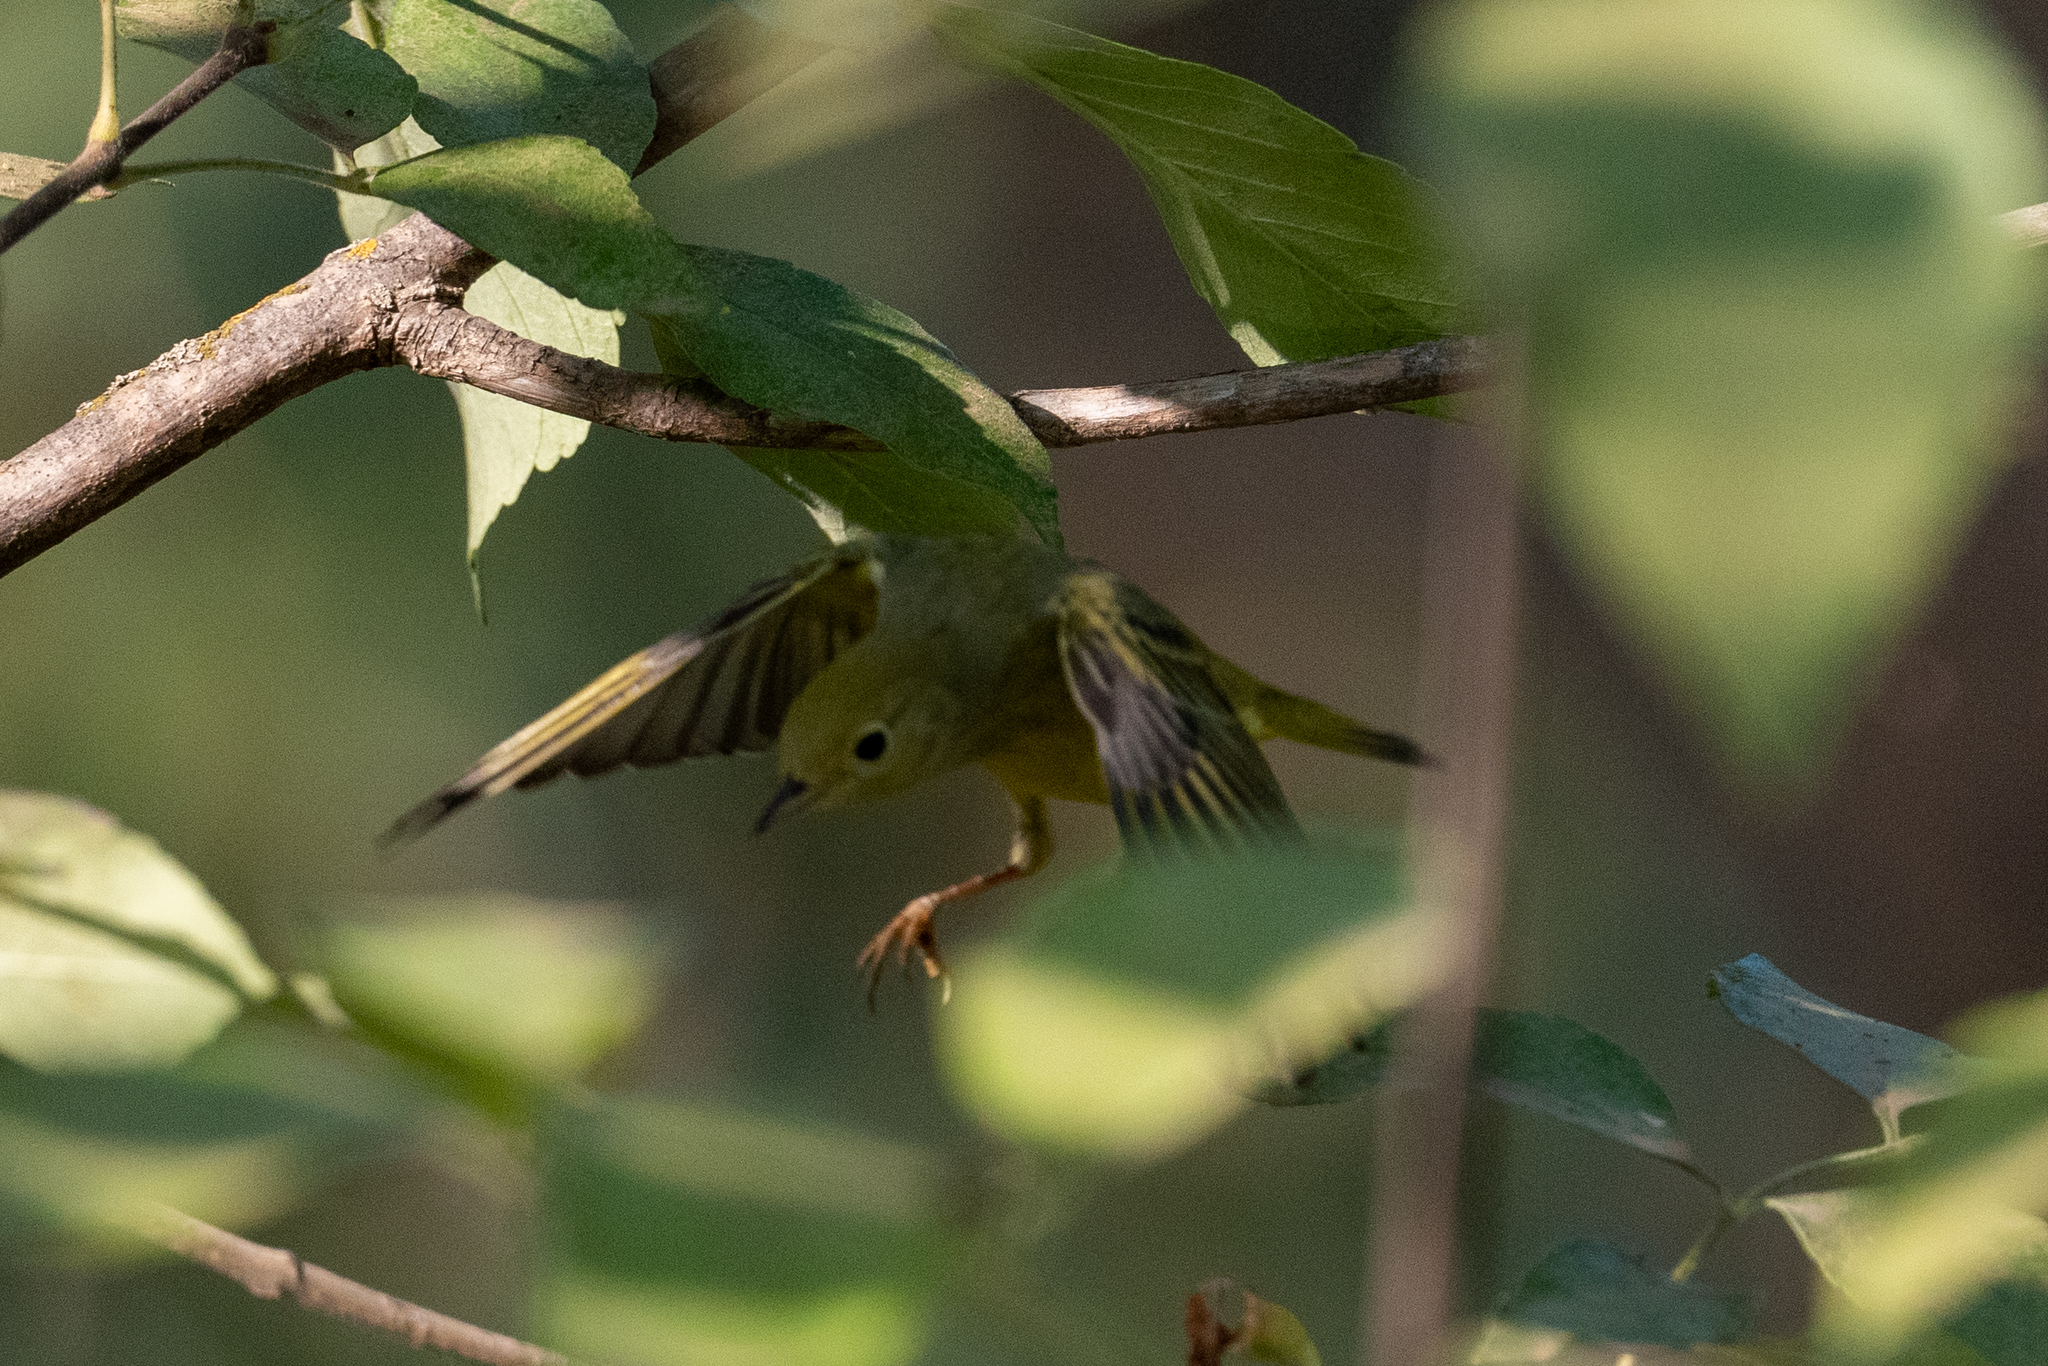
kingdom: Animalia
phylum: Chordata
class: Aves
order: Passeriformes
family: Parulidae
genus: Setophaga
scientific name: Setophaga petechia
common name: Yellow warbler
